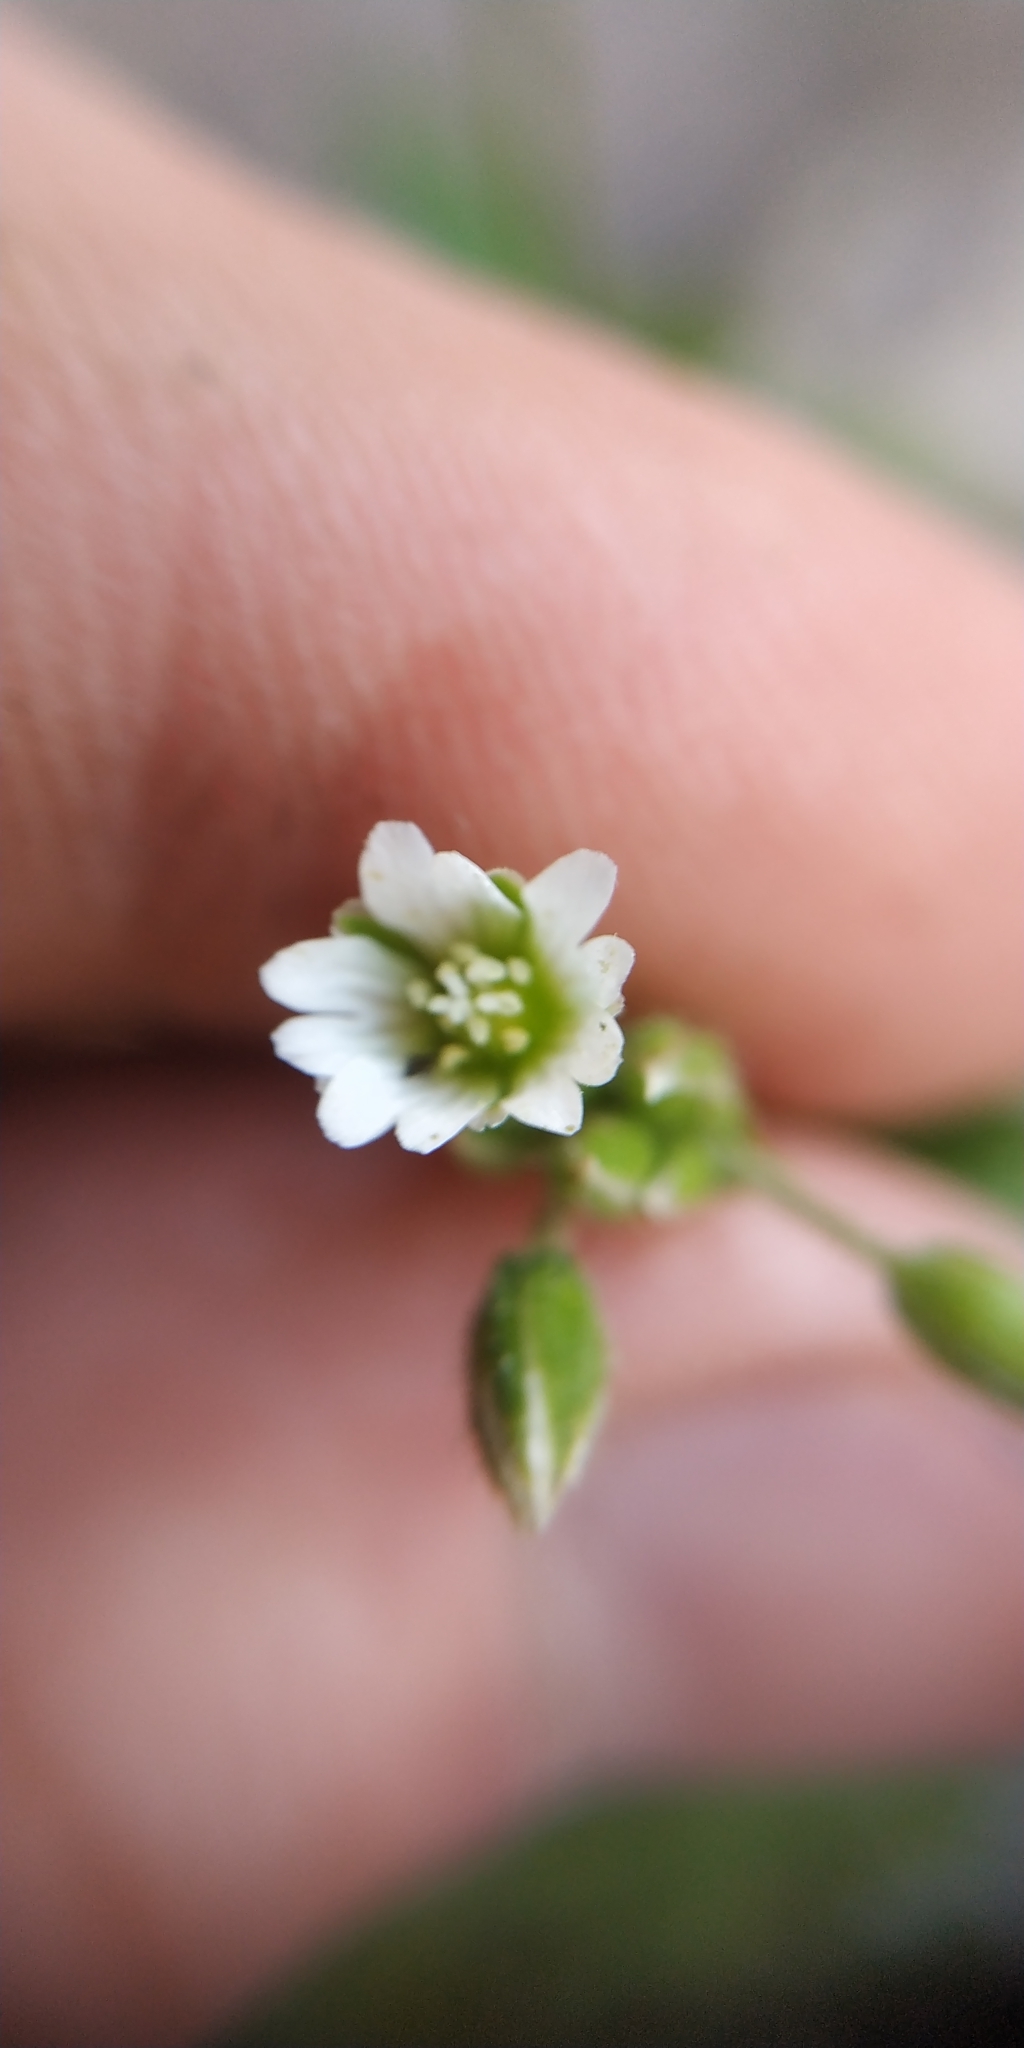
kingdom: Plantae
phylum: Tracheophyta
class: Magnoliopsida
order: Caryophyllales
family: Caryophyllaceae
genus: Cerastium
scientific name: Cerastium holosteoides
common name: Big chickweed
